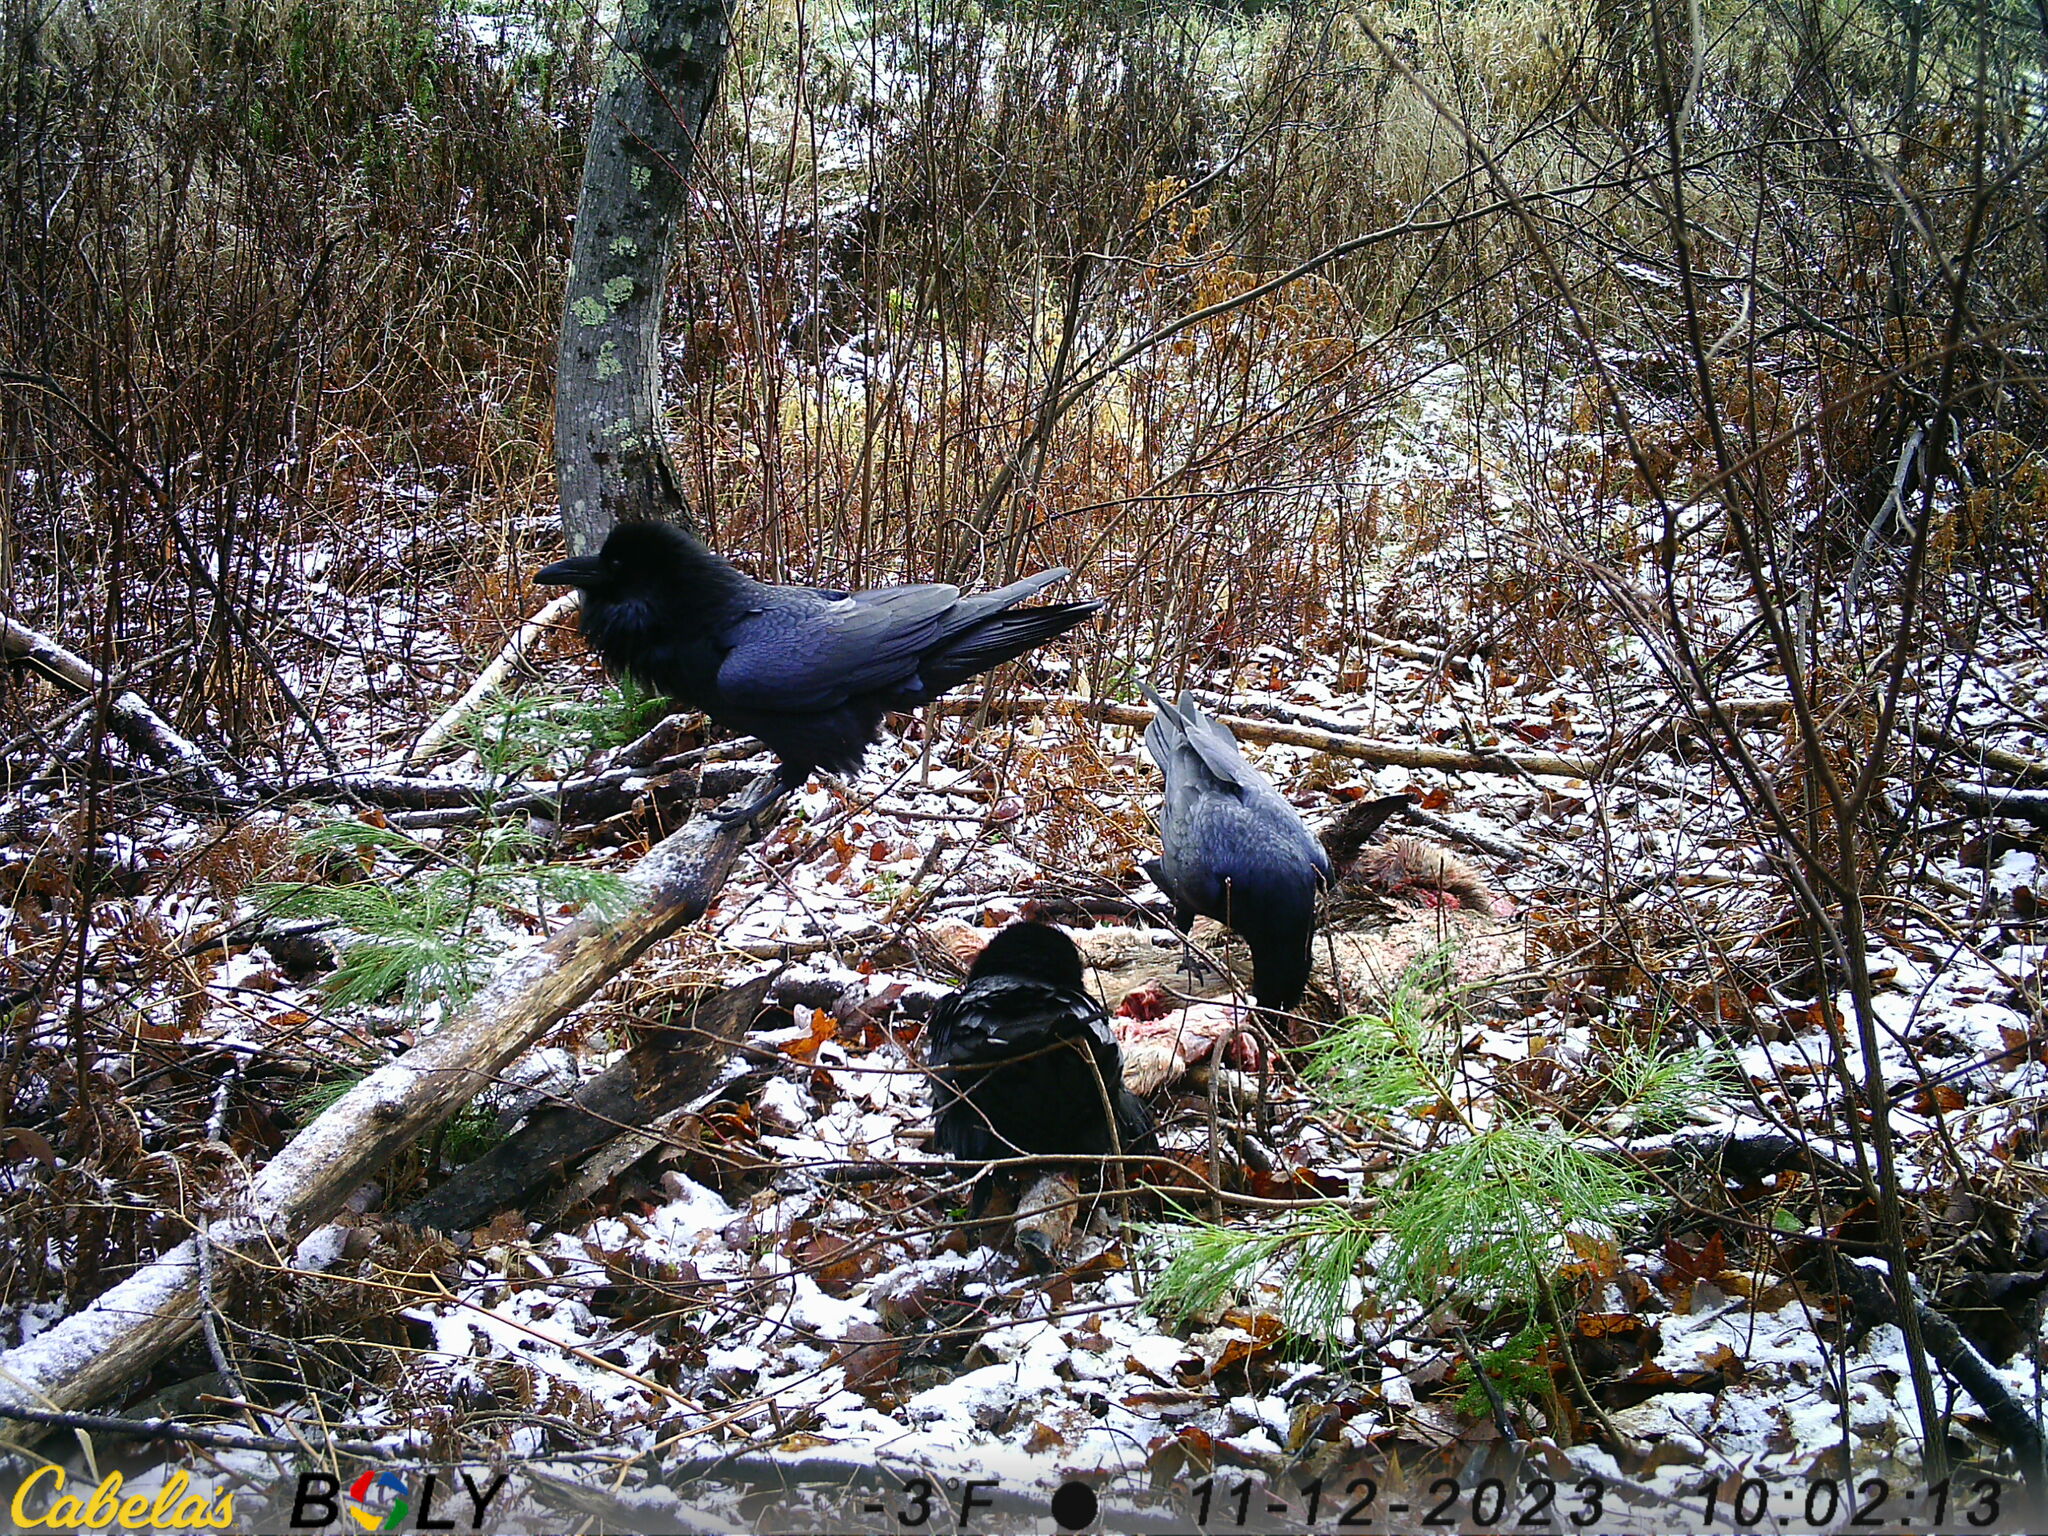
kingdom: Animalia
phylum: Chordata
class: Aves
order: Passeriformes
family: Corvidae
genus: Corvus
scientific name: Corvus corax
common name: Common raven
